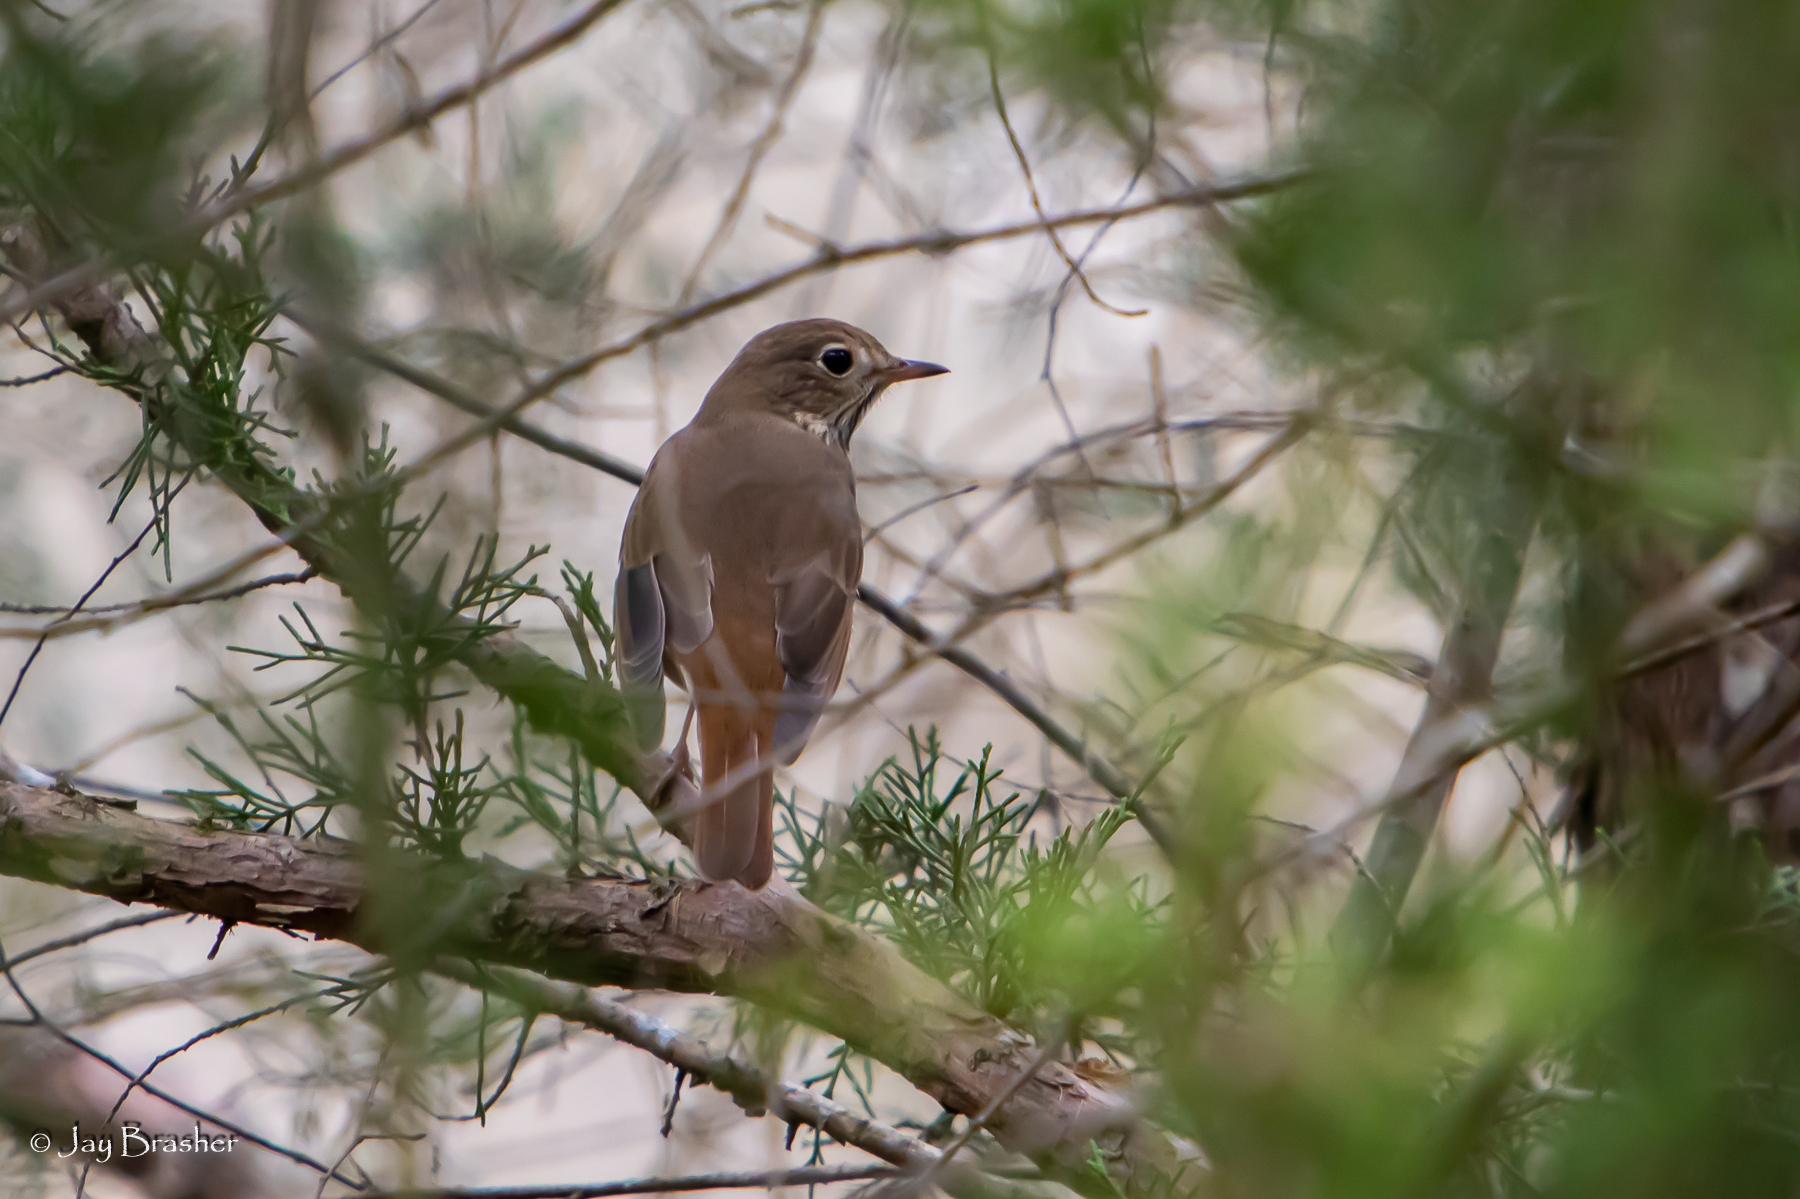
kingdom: Animalia
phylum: Chordata
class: Aves
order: Passeriformes
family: Turdidae
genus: Catharus
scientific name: Catharus guttatus
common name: Hermit thrush
